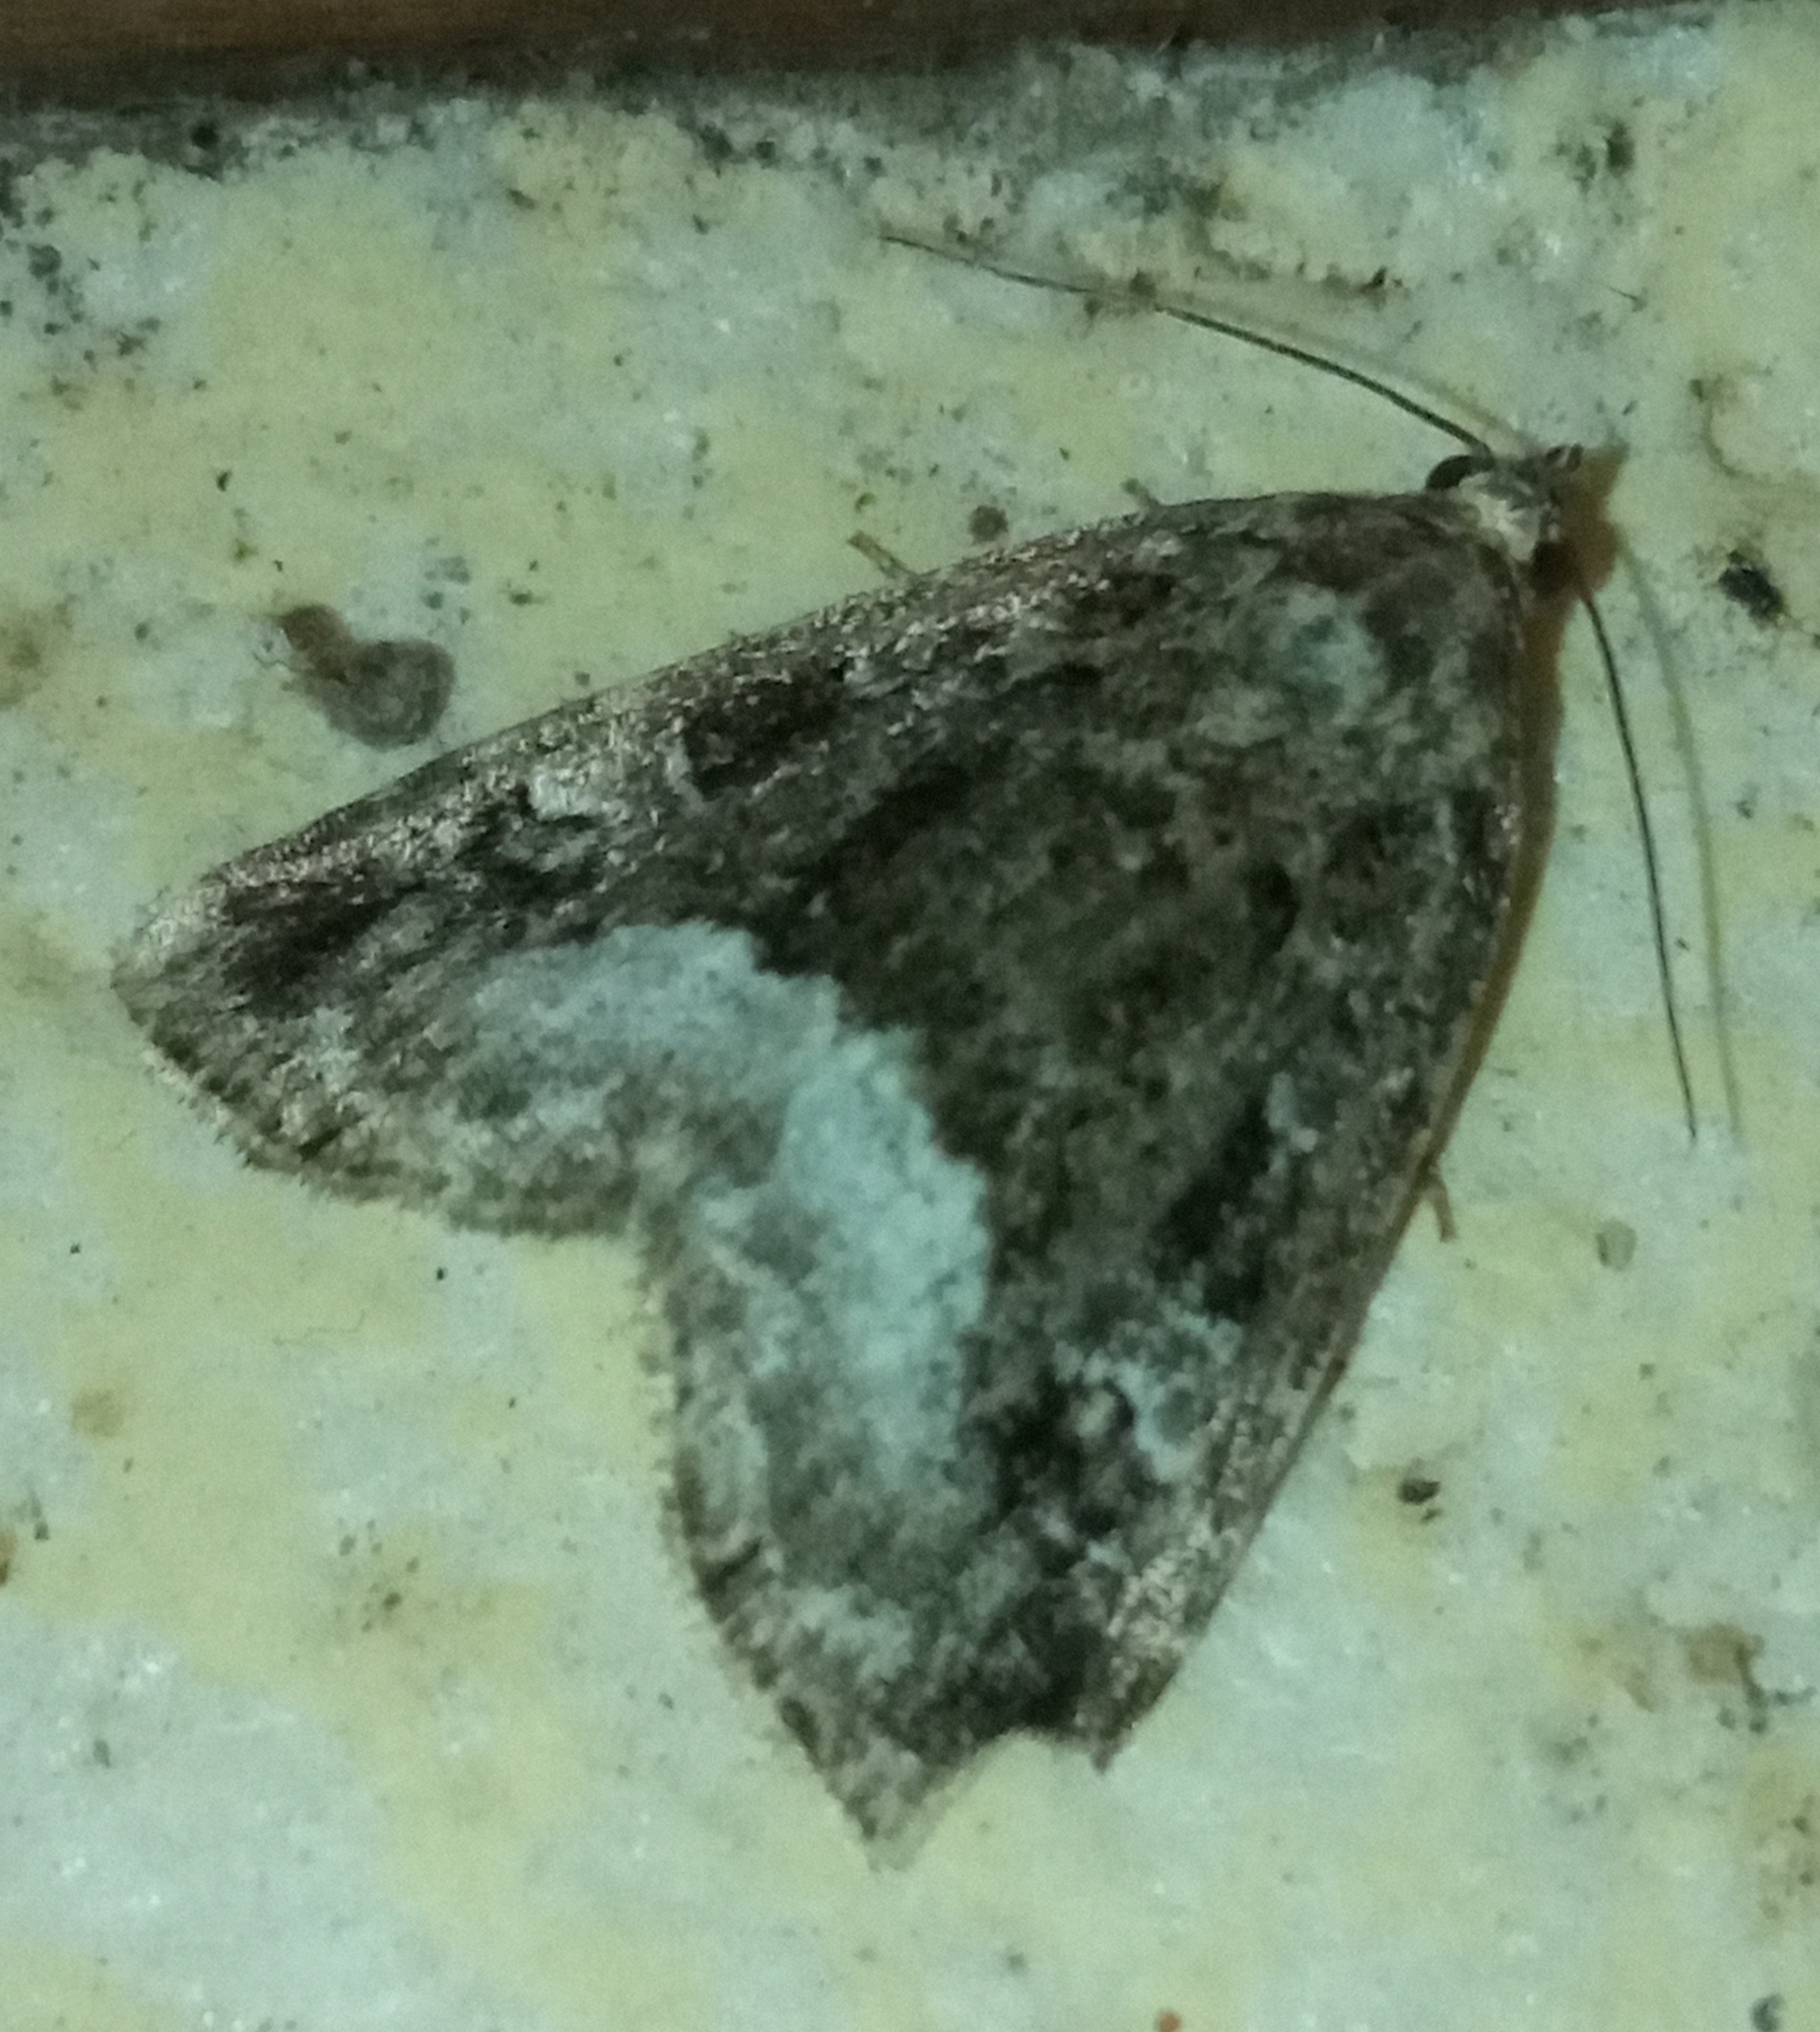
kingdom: Animalia
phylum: Arthropoda
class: Insecta
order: Lepidoptera
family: Noctuidae
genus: Deltote
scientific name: Deltote pygarga
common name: Marbled white spot
